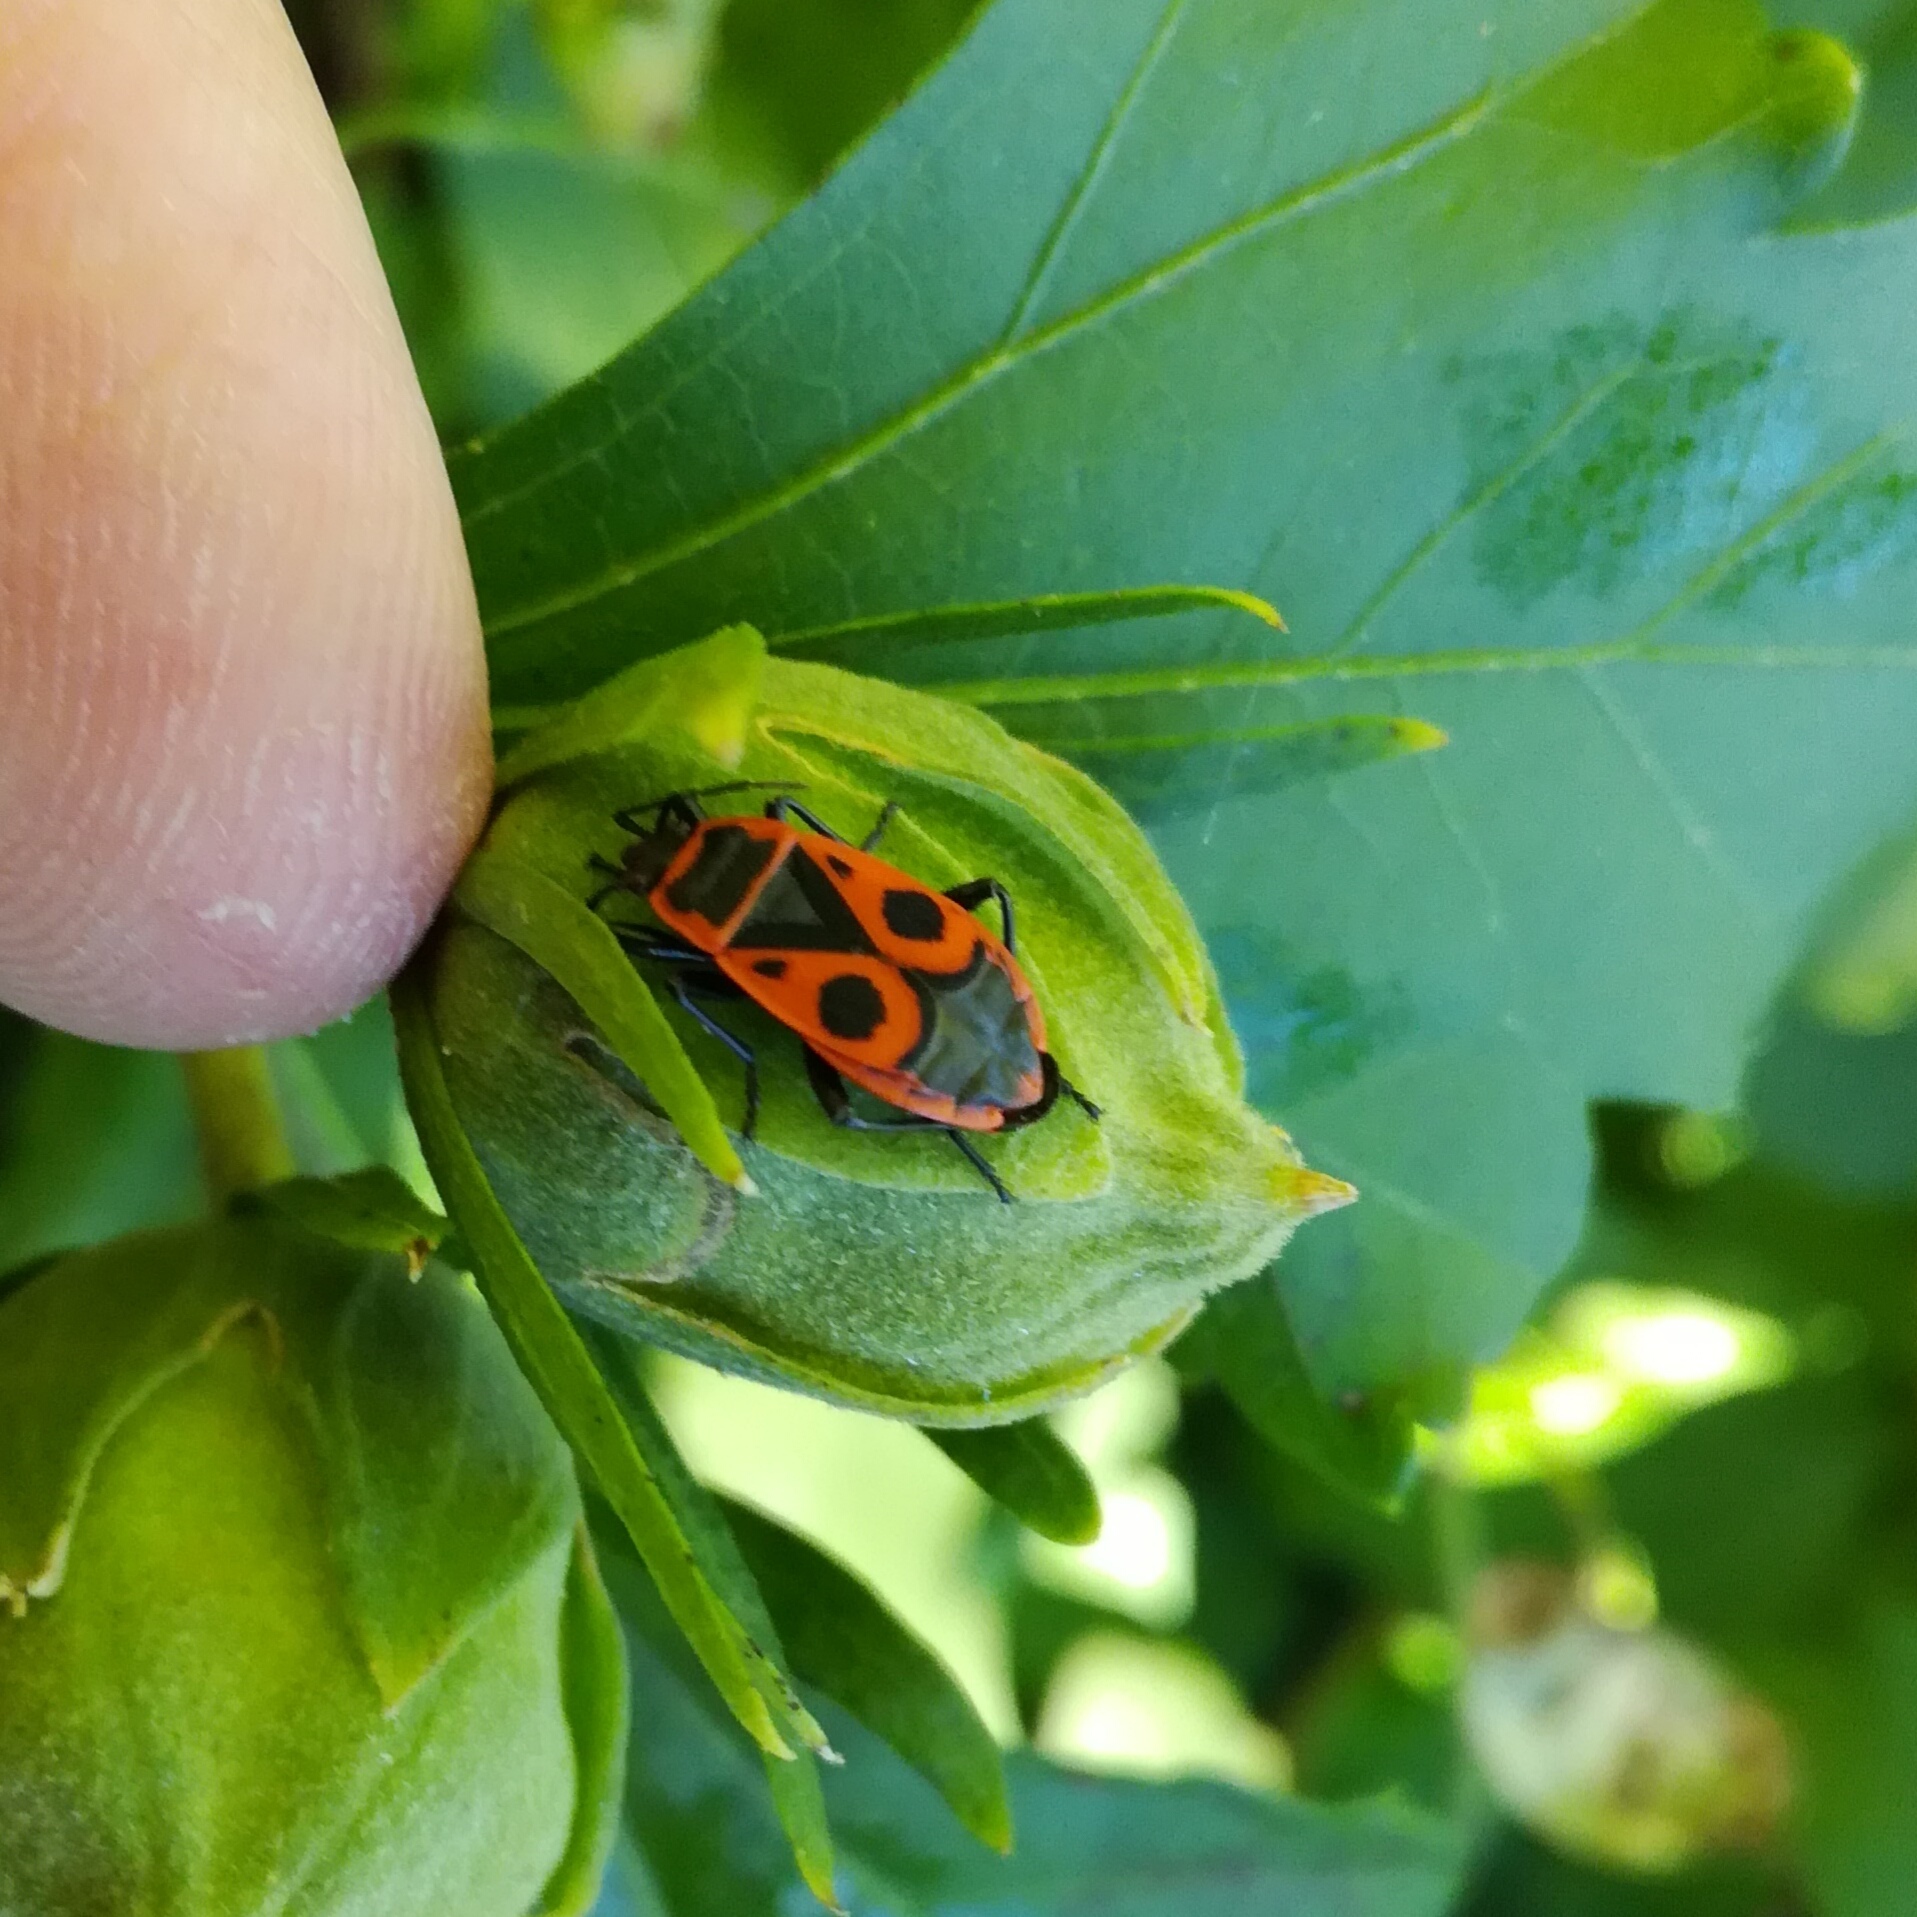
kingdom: Animalia
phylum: Arthropoda
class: Insecta
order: Hemiptera
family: Pyrrhocoridae
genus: Pyrrhocoris
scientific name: Pyrrhocoris apterus
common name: Firebug
